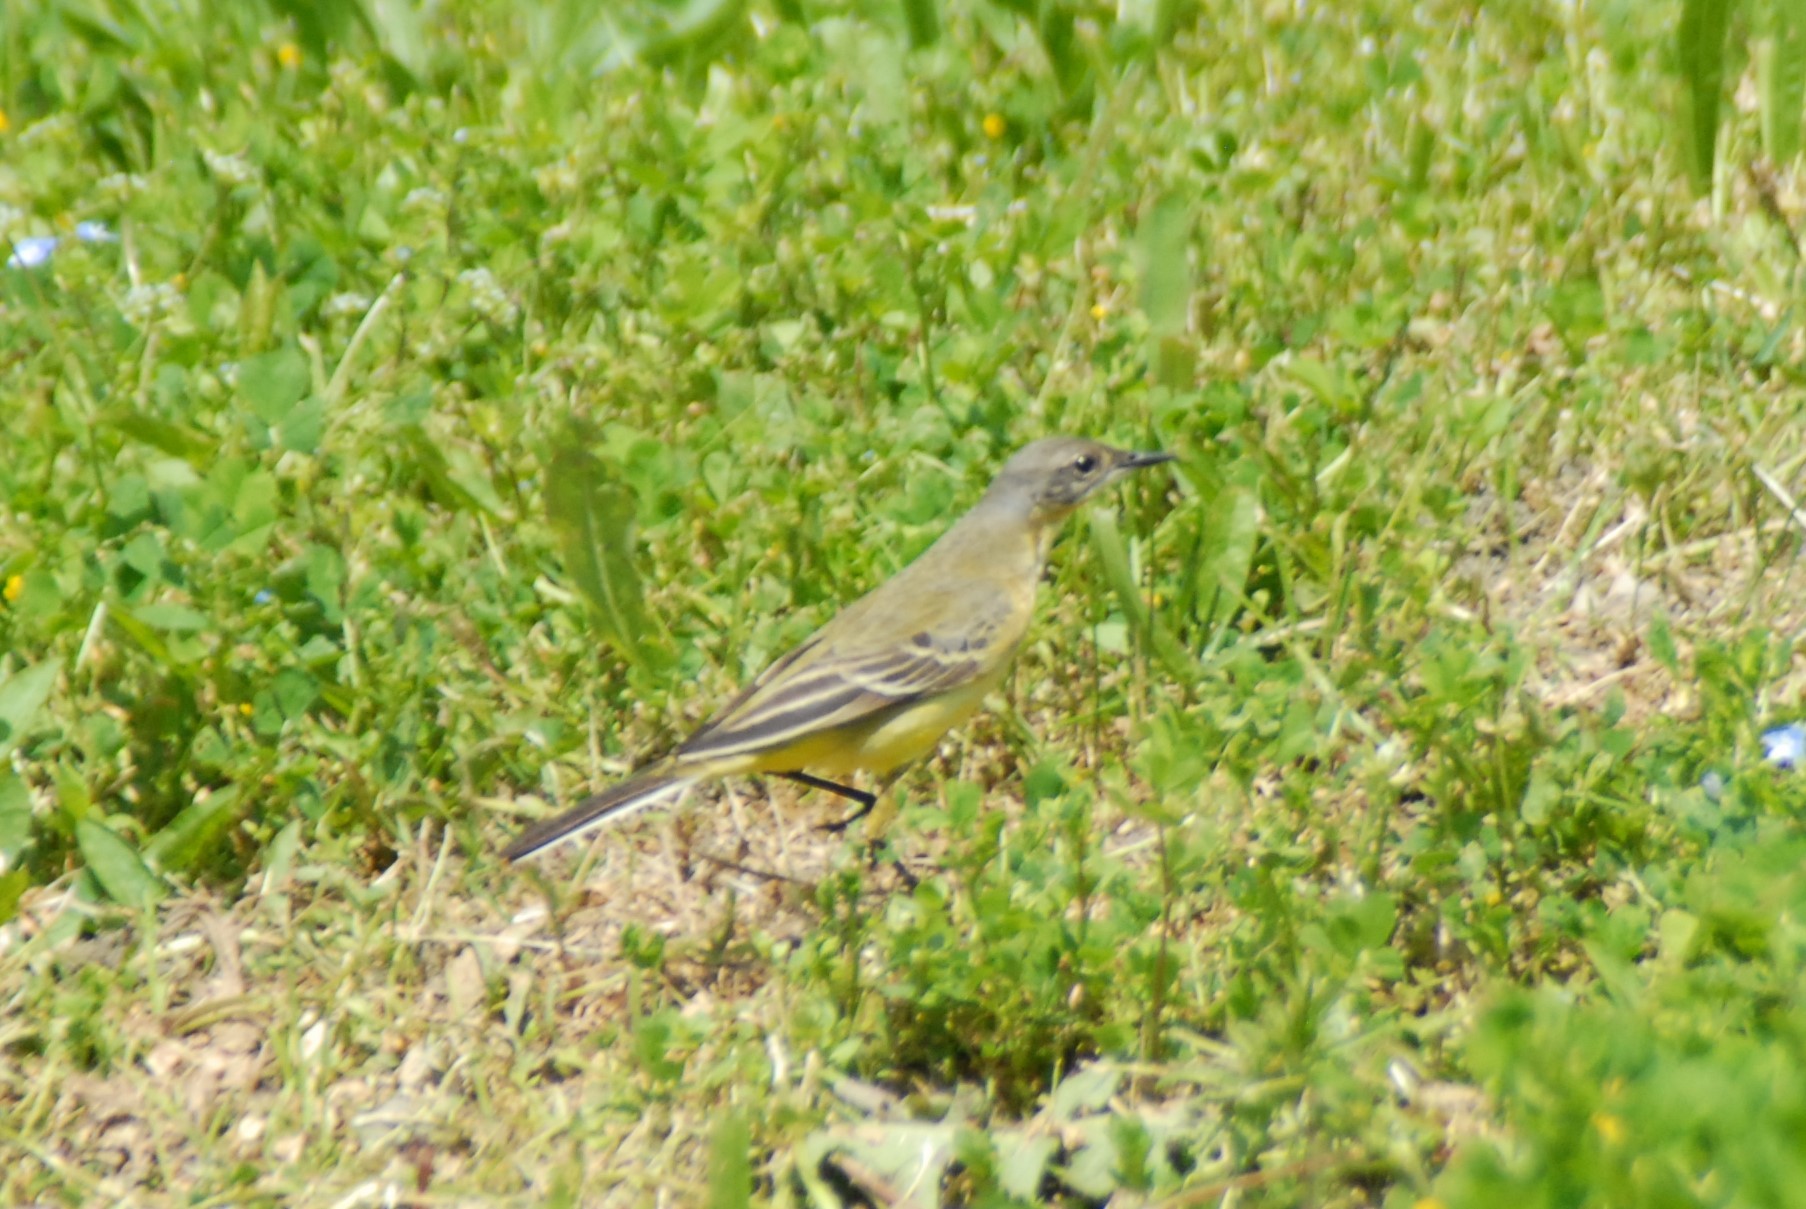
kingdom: Animalia
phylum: Chordata
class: Aves
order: Passeriformes
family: Motacillidae
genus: Motacilla
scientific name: Motacilla flava
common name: Western yellow wagtail
